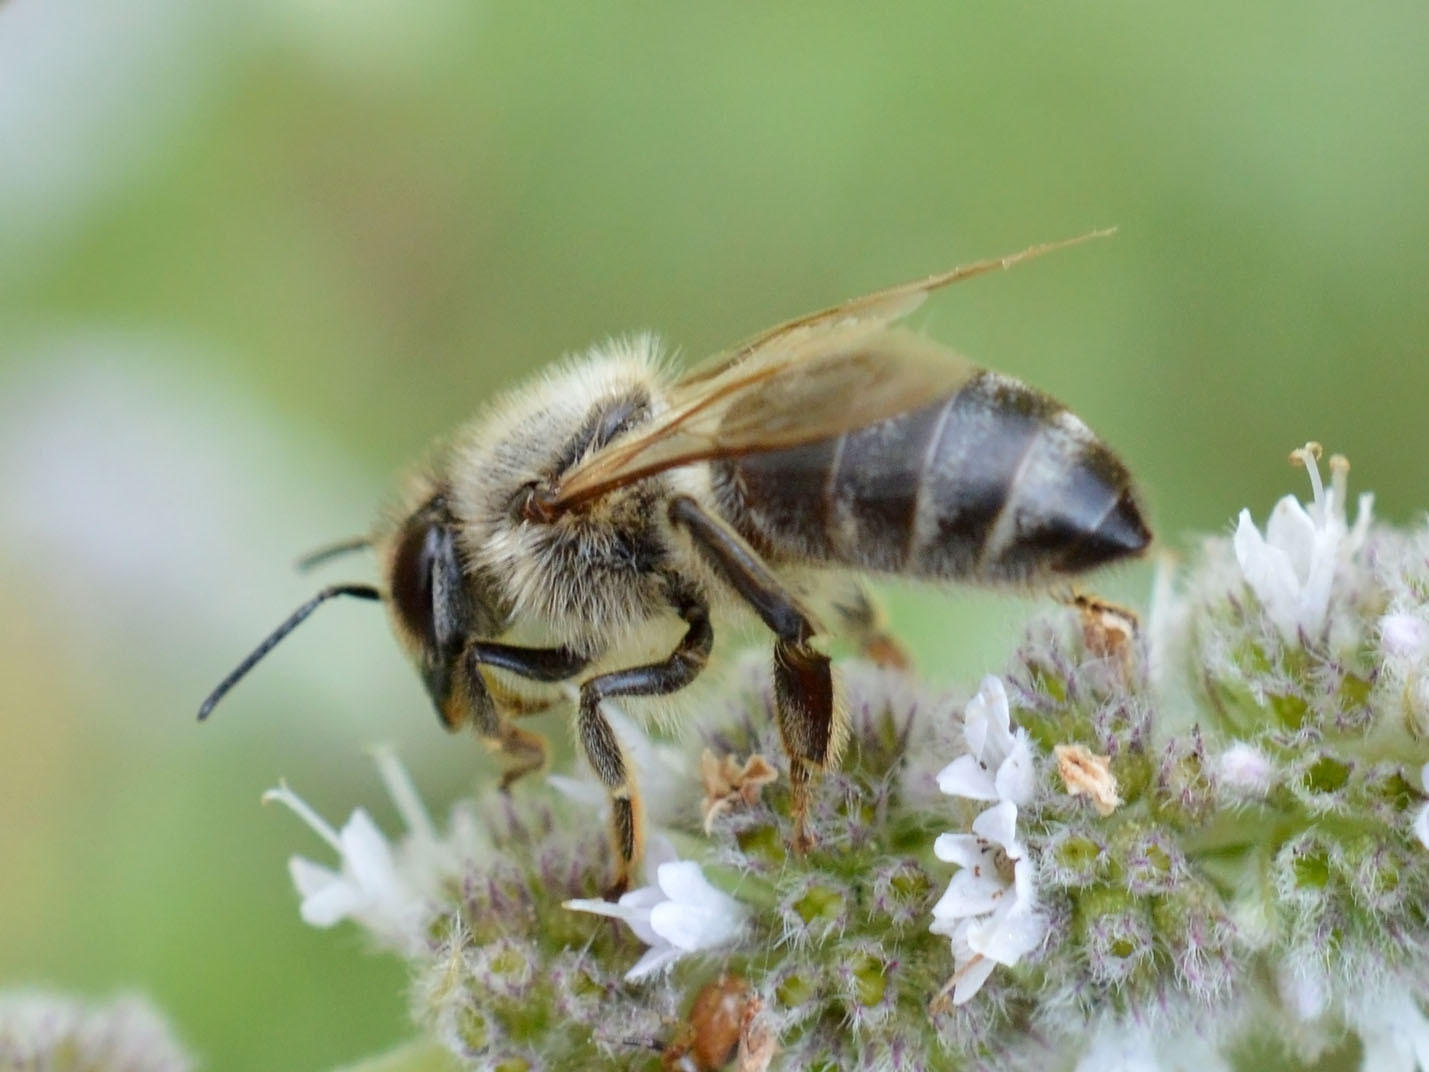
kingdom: Animalia
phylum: Arthropoda
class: Insecta
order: Hymenoptera
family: Apidae
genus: Apis
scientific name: Apis mellifera
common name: Honey bee
